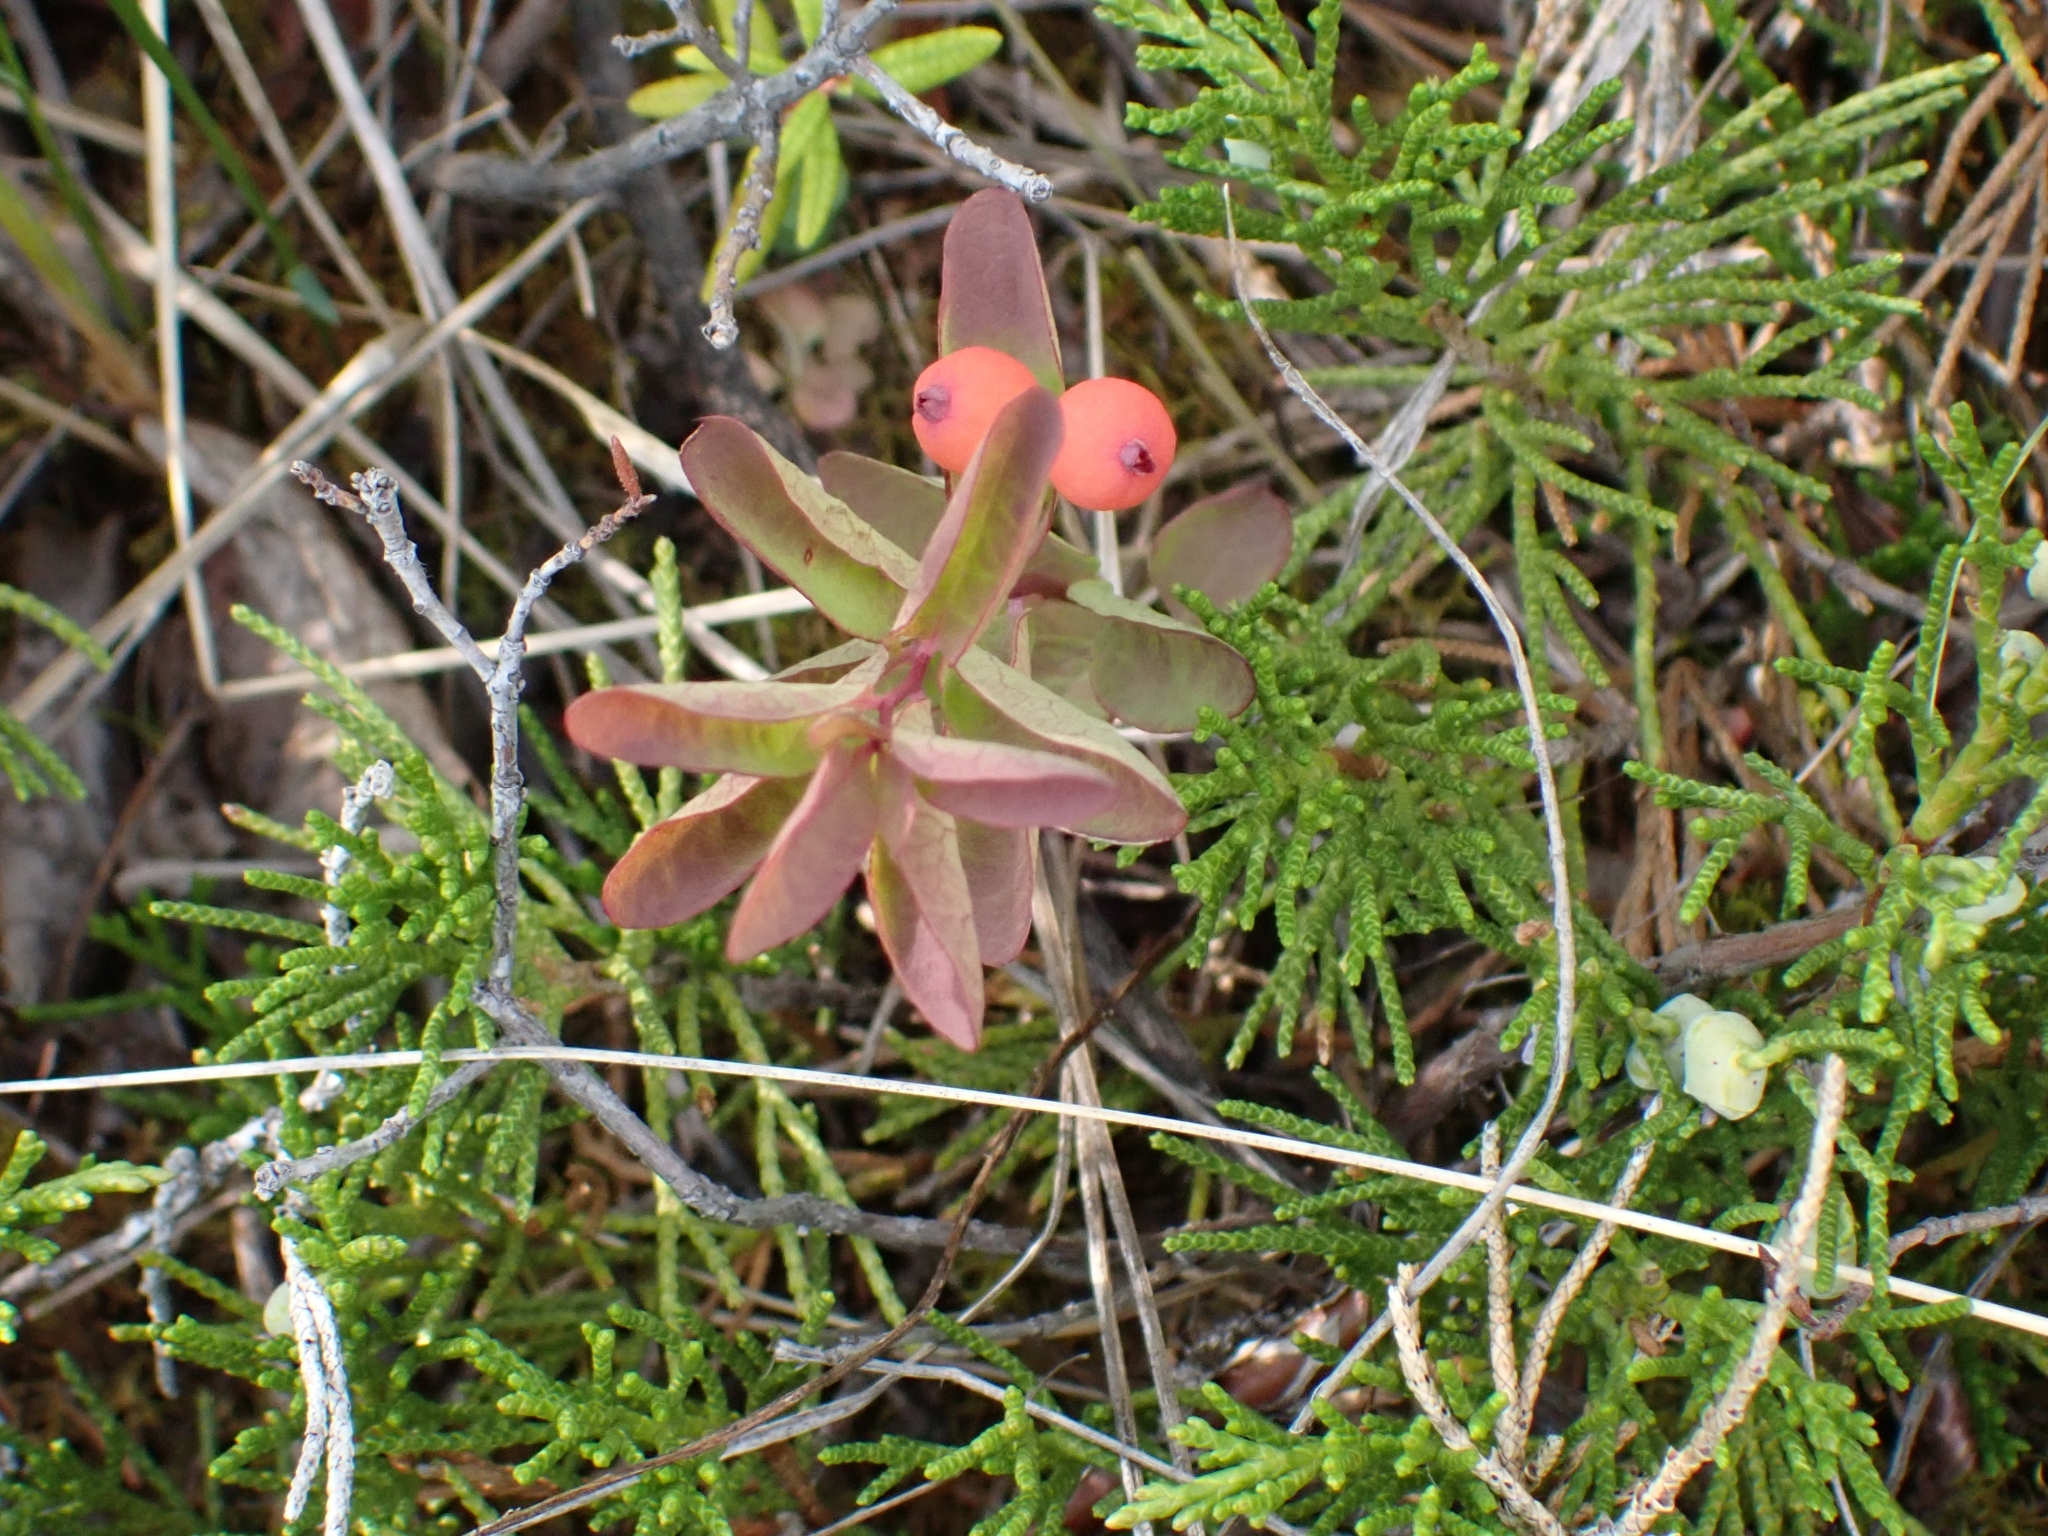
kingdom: Plantae
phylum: Tracheophyta
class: Magnoliopsida
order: Santalales
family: Comandraceae
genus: Geocaulon
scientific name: Geocaulon lividum
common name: Earthberry
